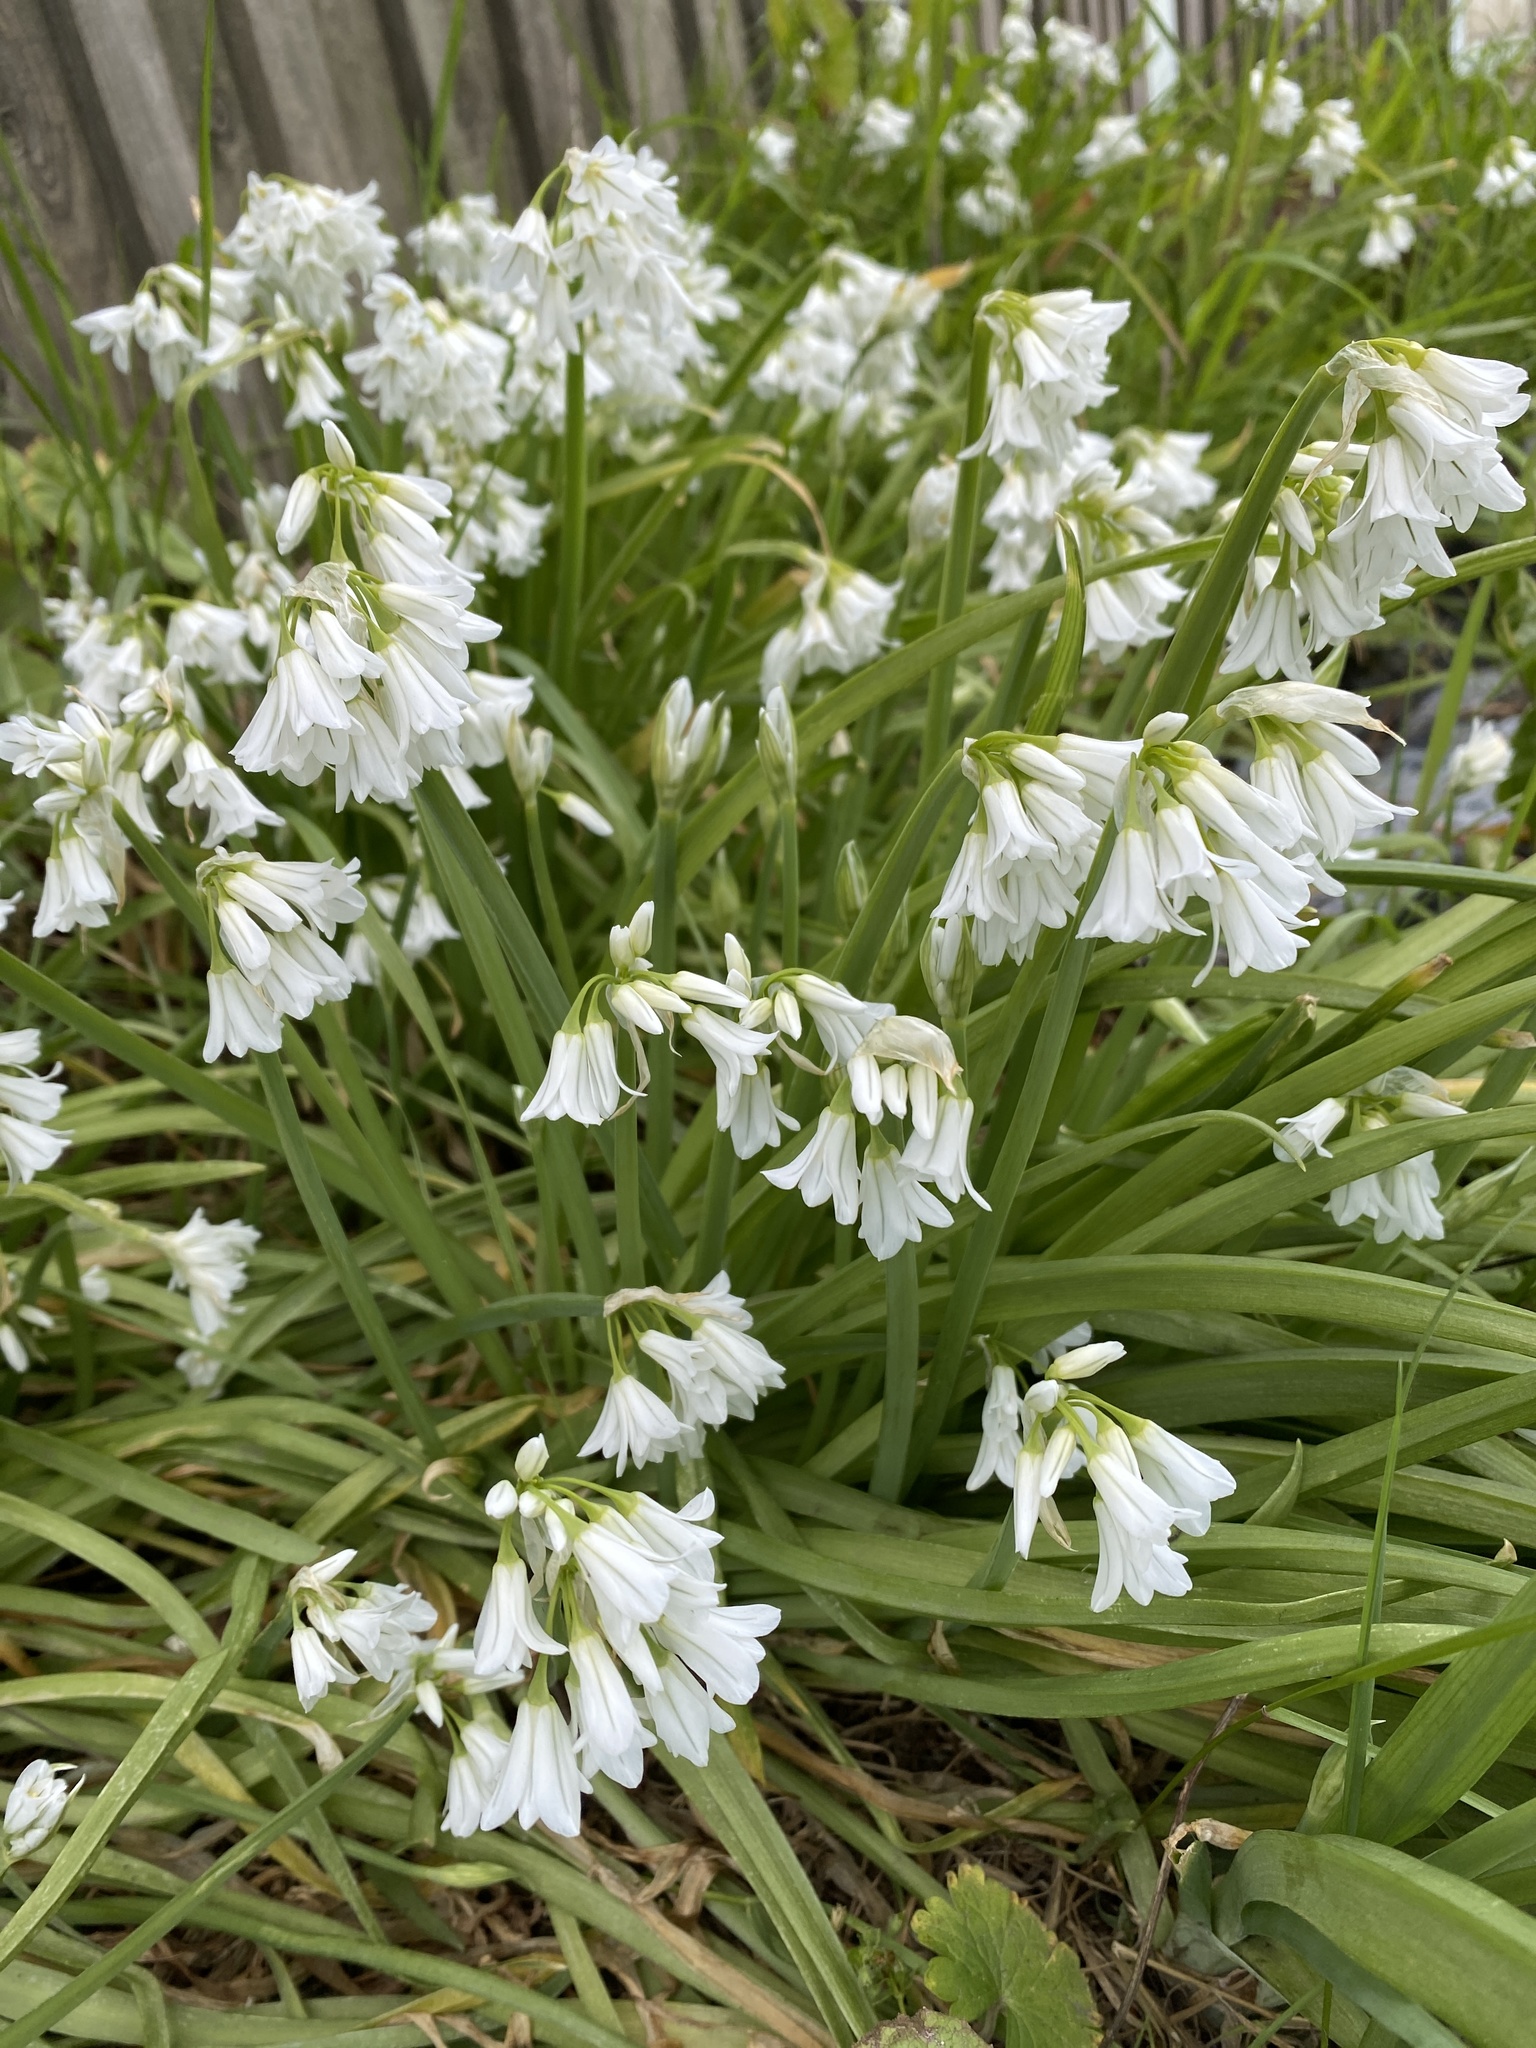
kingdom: Plantae
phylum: Tracheophyta
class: Liliopsida
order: Asparagales
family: Amaryllidaceae
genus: Allium
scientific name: Allium triquetrum
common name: Three-cornered garlic
